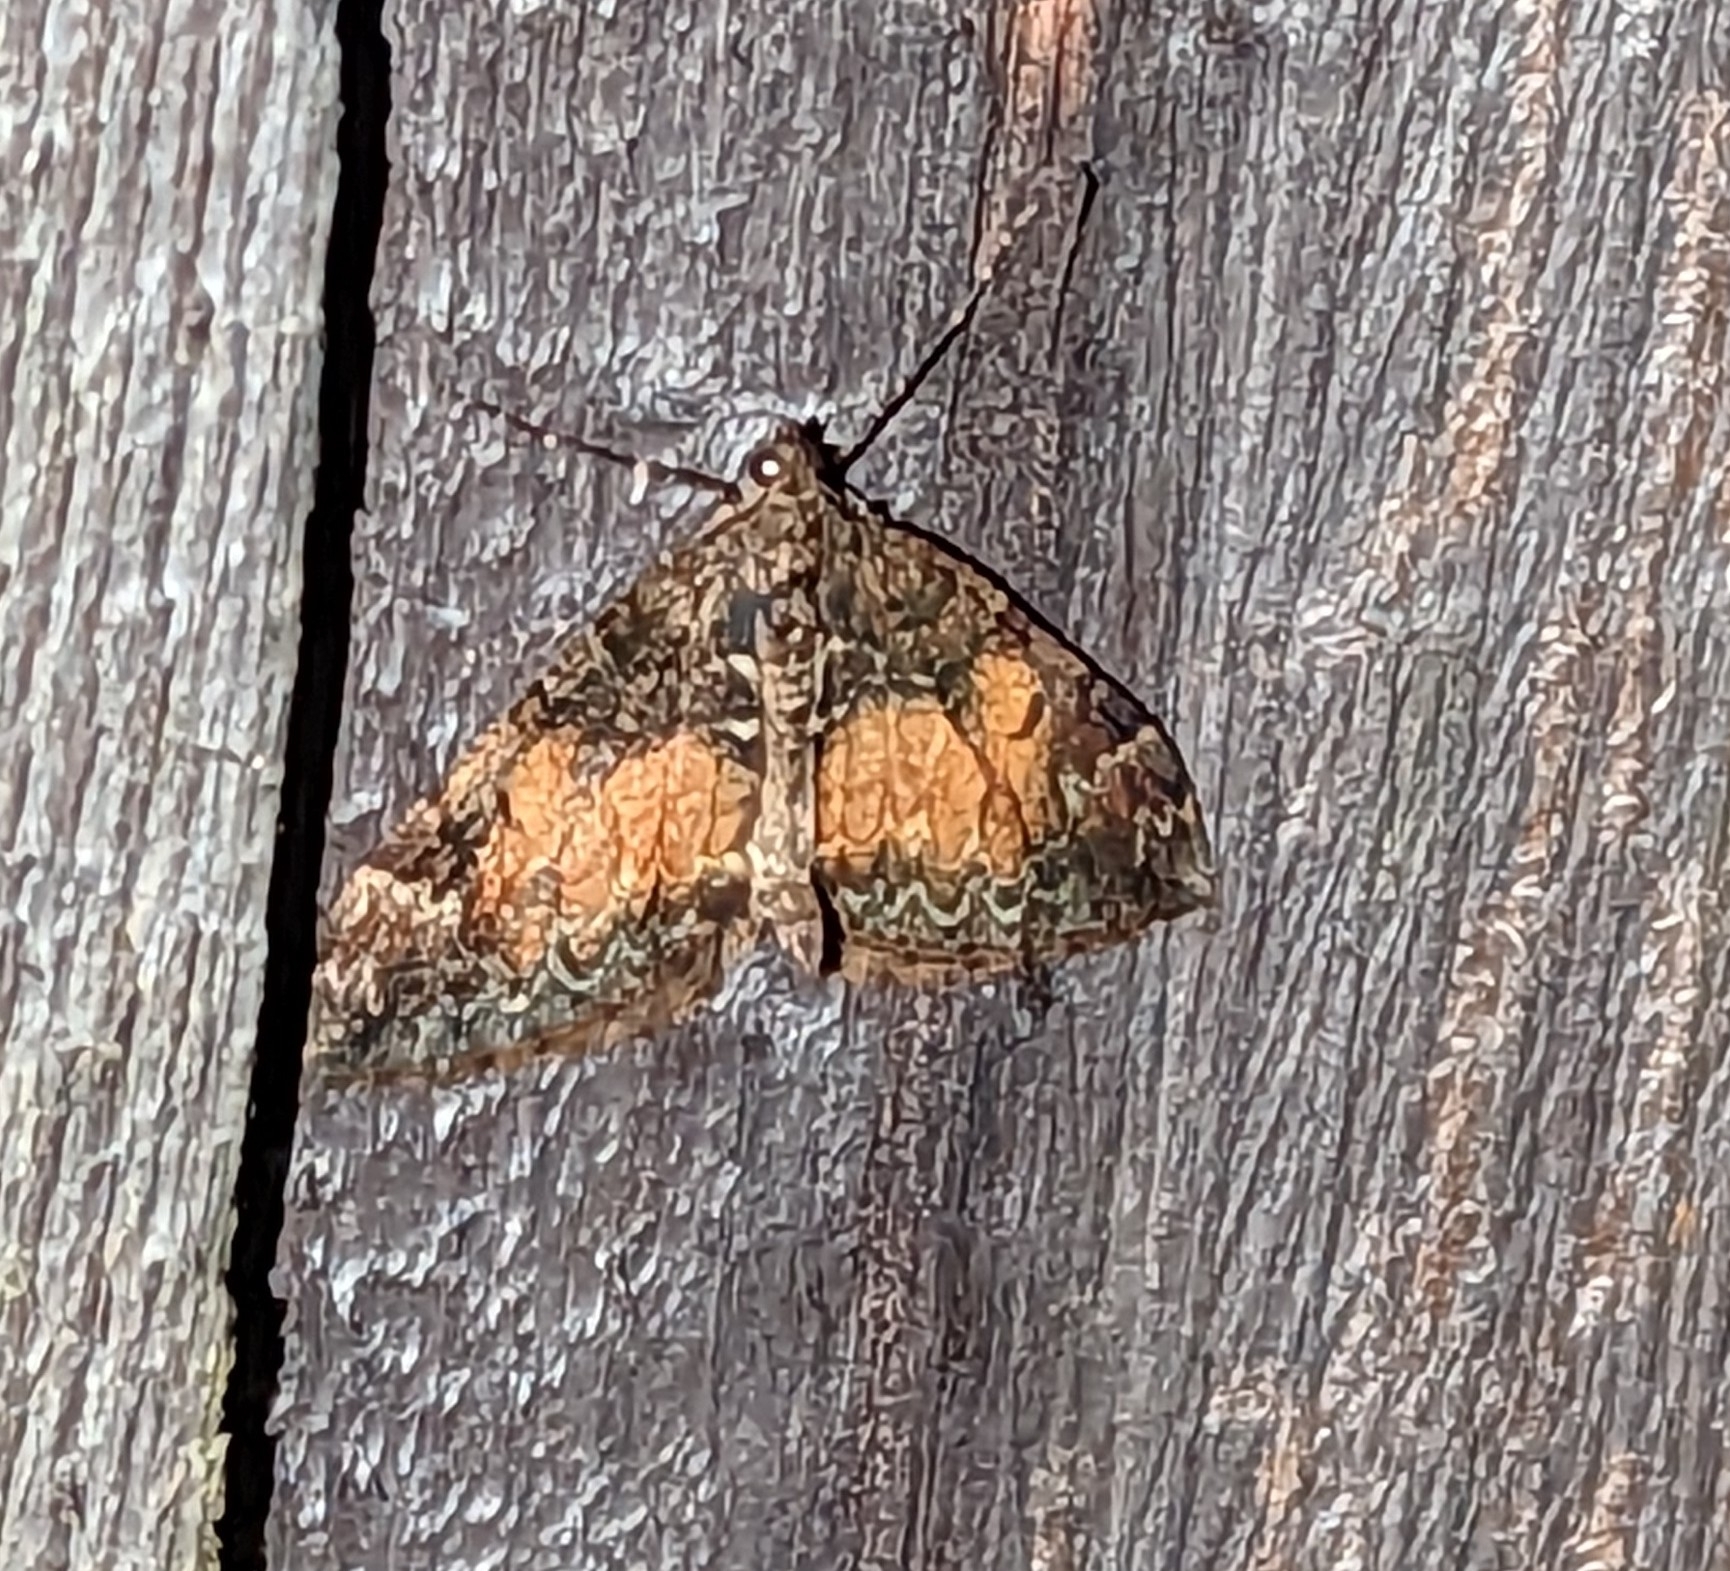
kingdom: Animalia
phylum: Arthropoda
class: Insecta
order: Lepidoptera
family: Geometridae
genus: Dysstroma
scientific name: Dysstroma truncata
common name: Common marbled carpet
